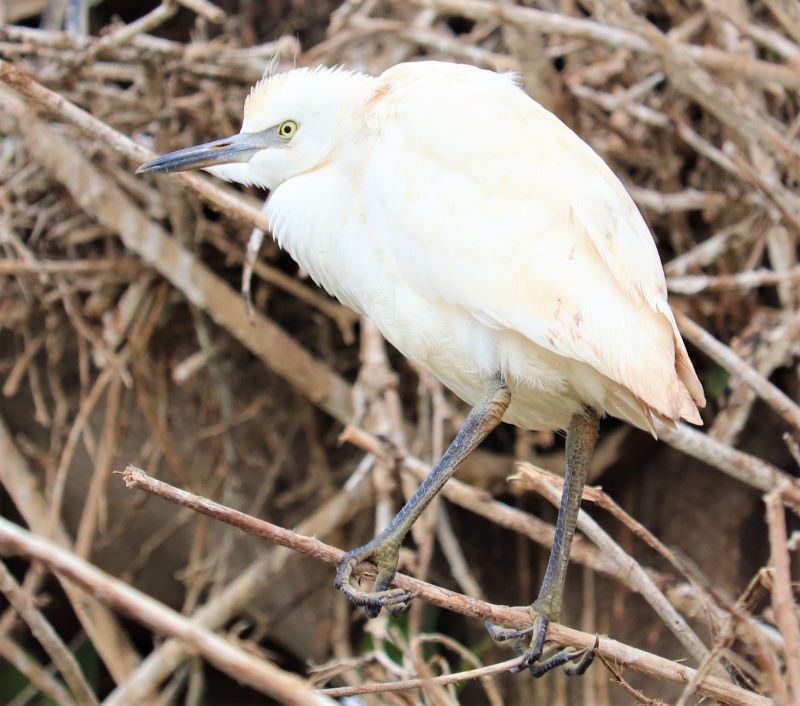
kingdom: Animalia
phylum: Chordata
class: Aves
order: Pelecaniformes
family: Ardeidae
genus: Bubulcus
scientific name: Bubulcus ibis
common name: Cattle egret
